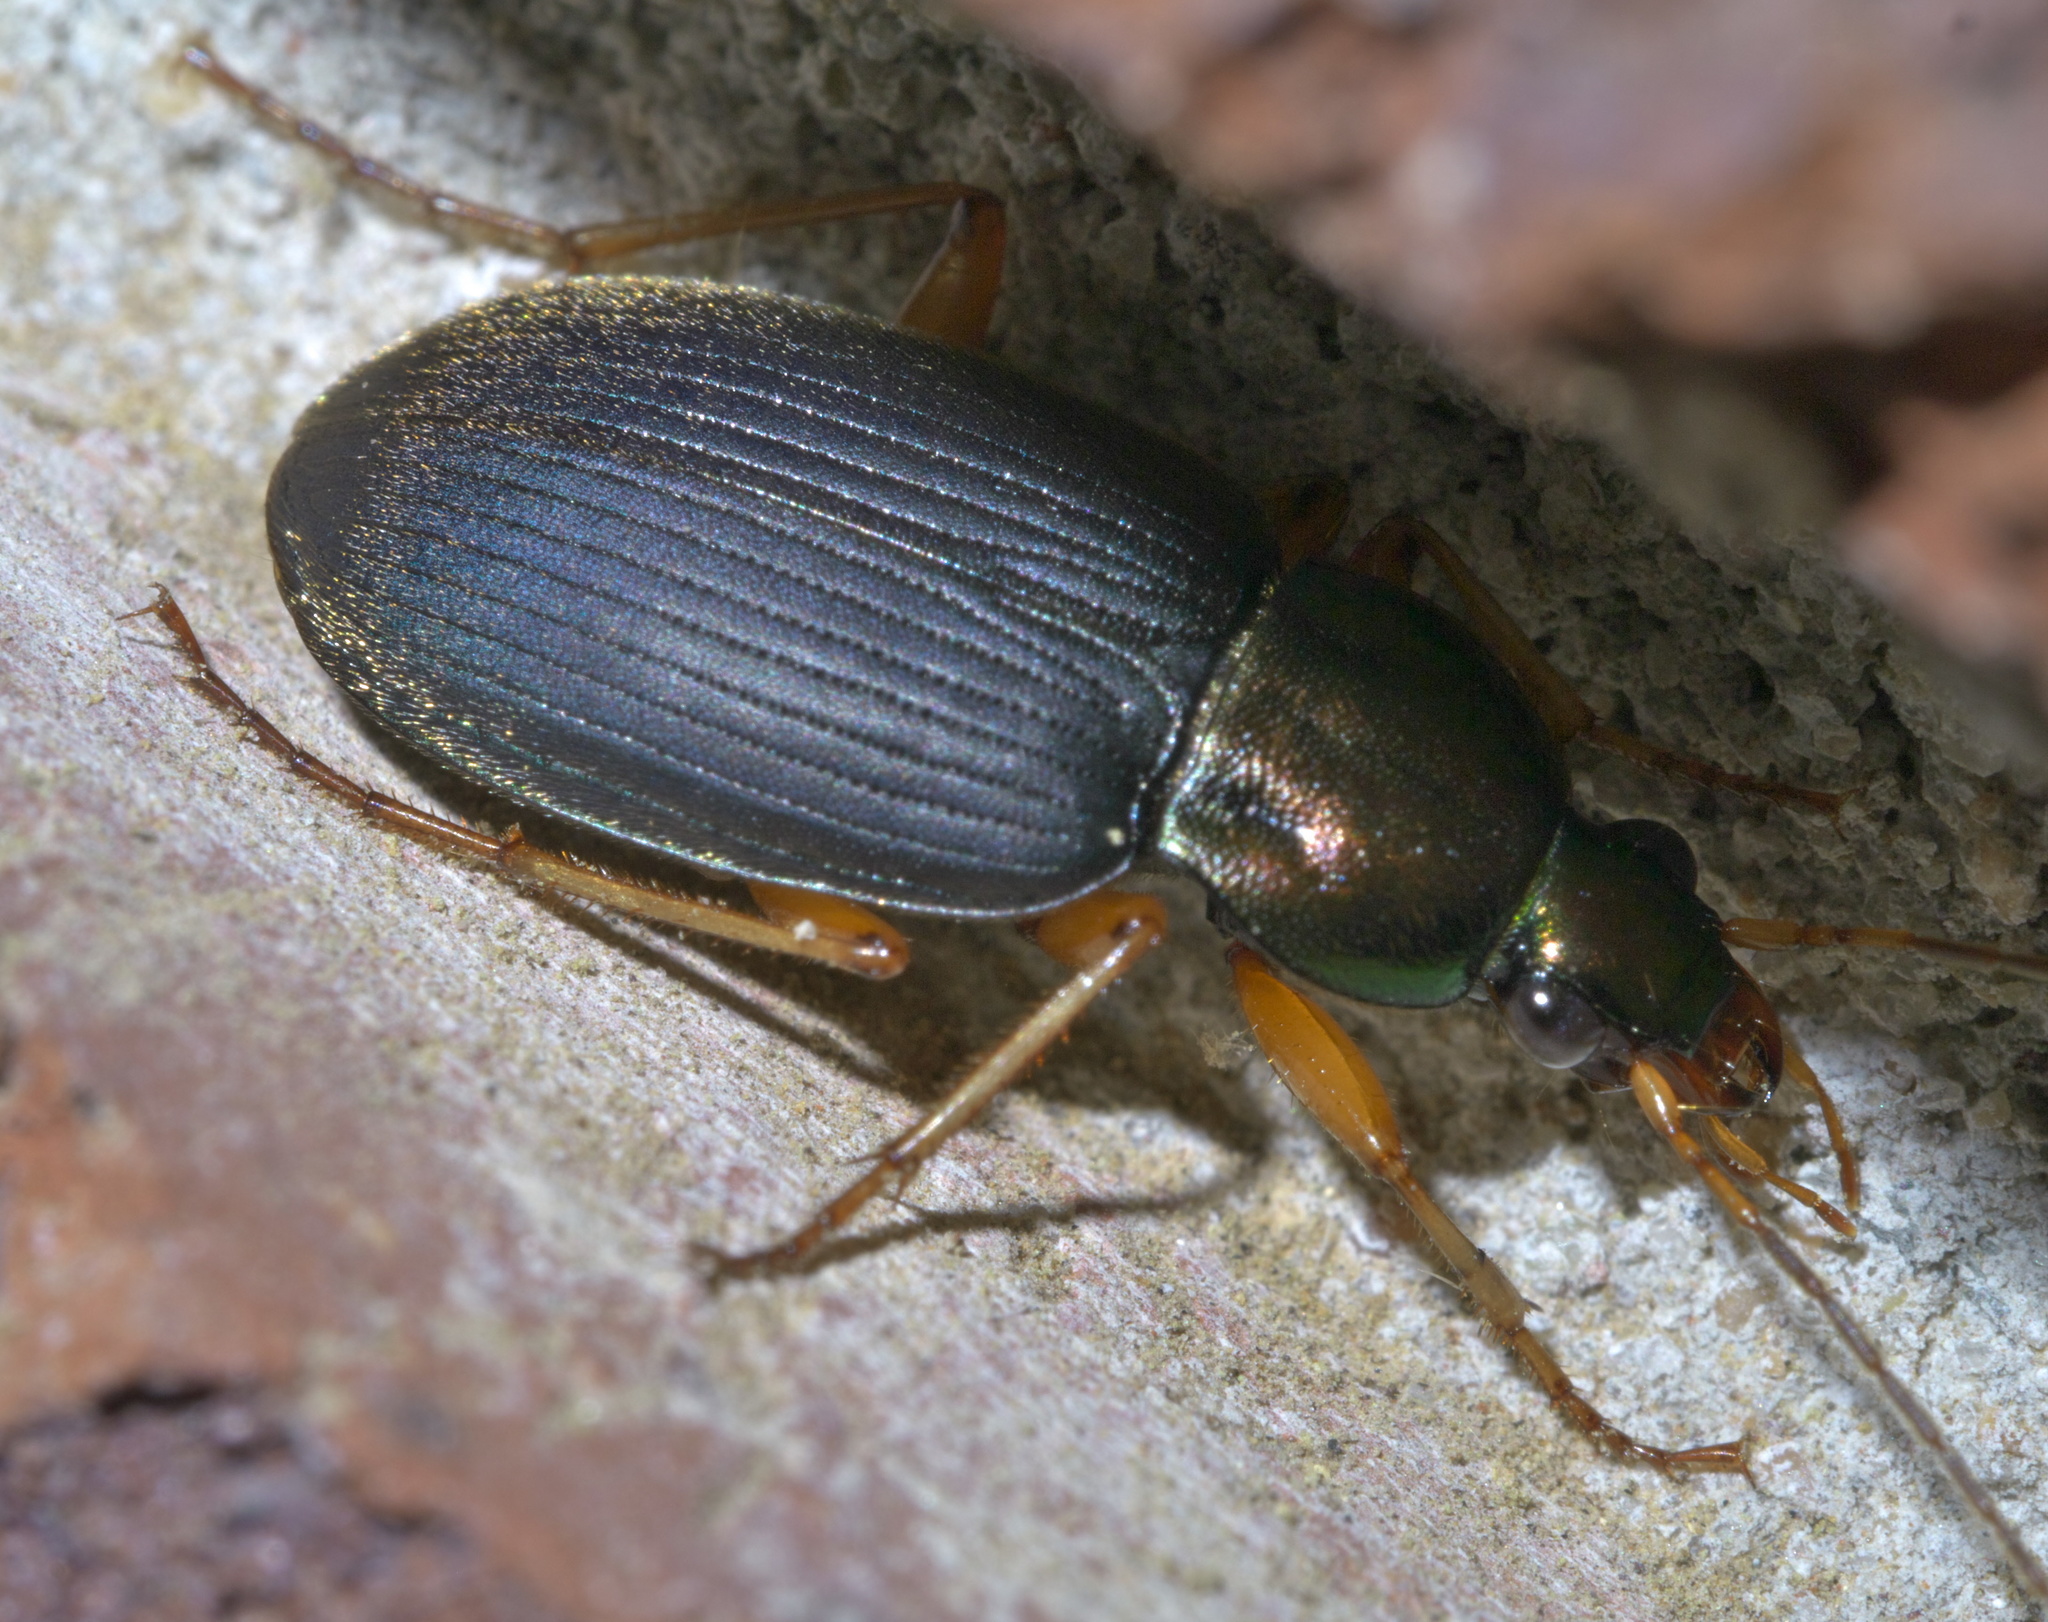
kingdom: Animalia
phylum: Arthropoda
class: Insecta
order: Coleoptera
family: Carabidae
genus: Chlaenius
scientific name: Chlaenius tricolor
